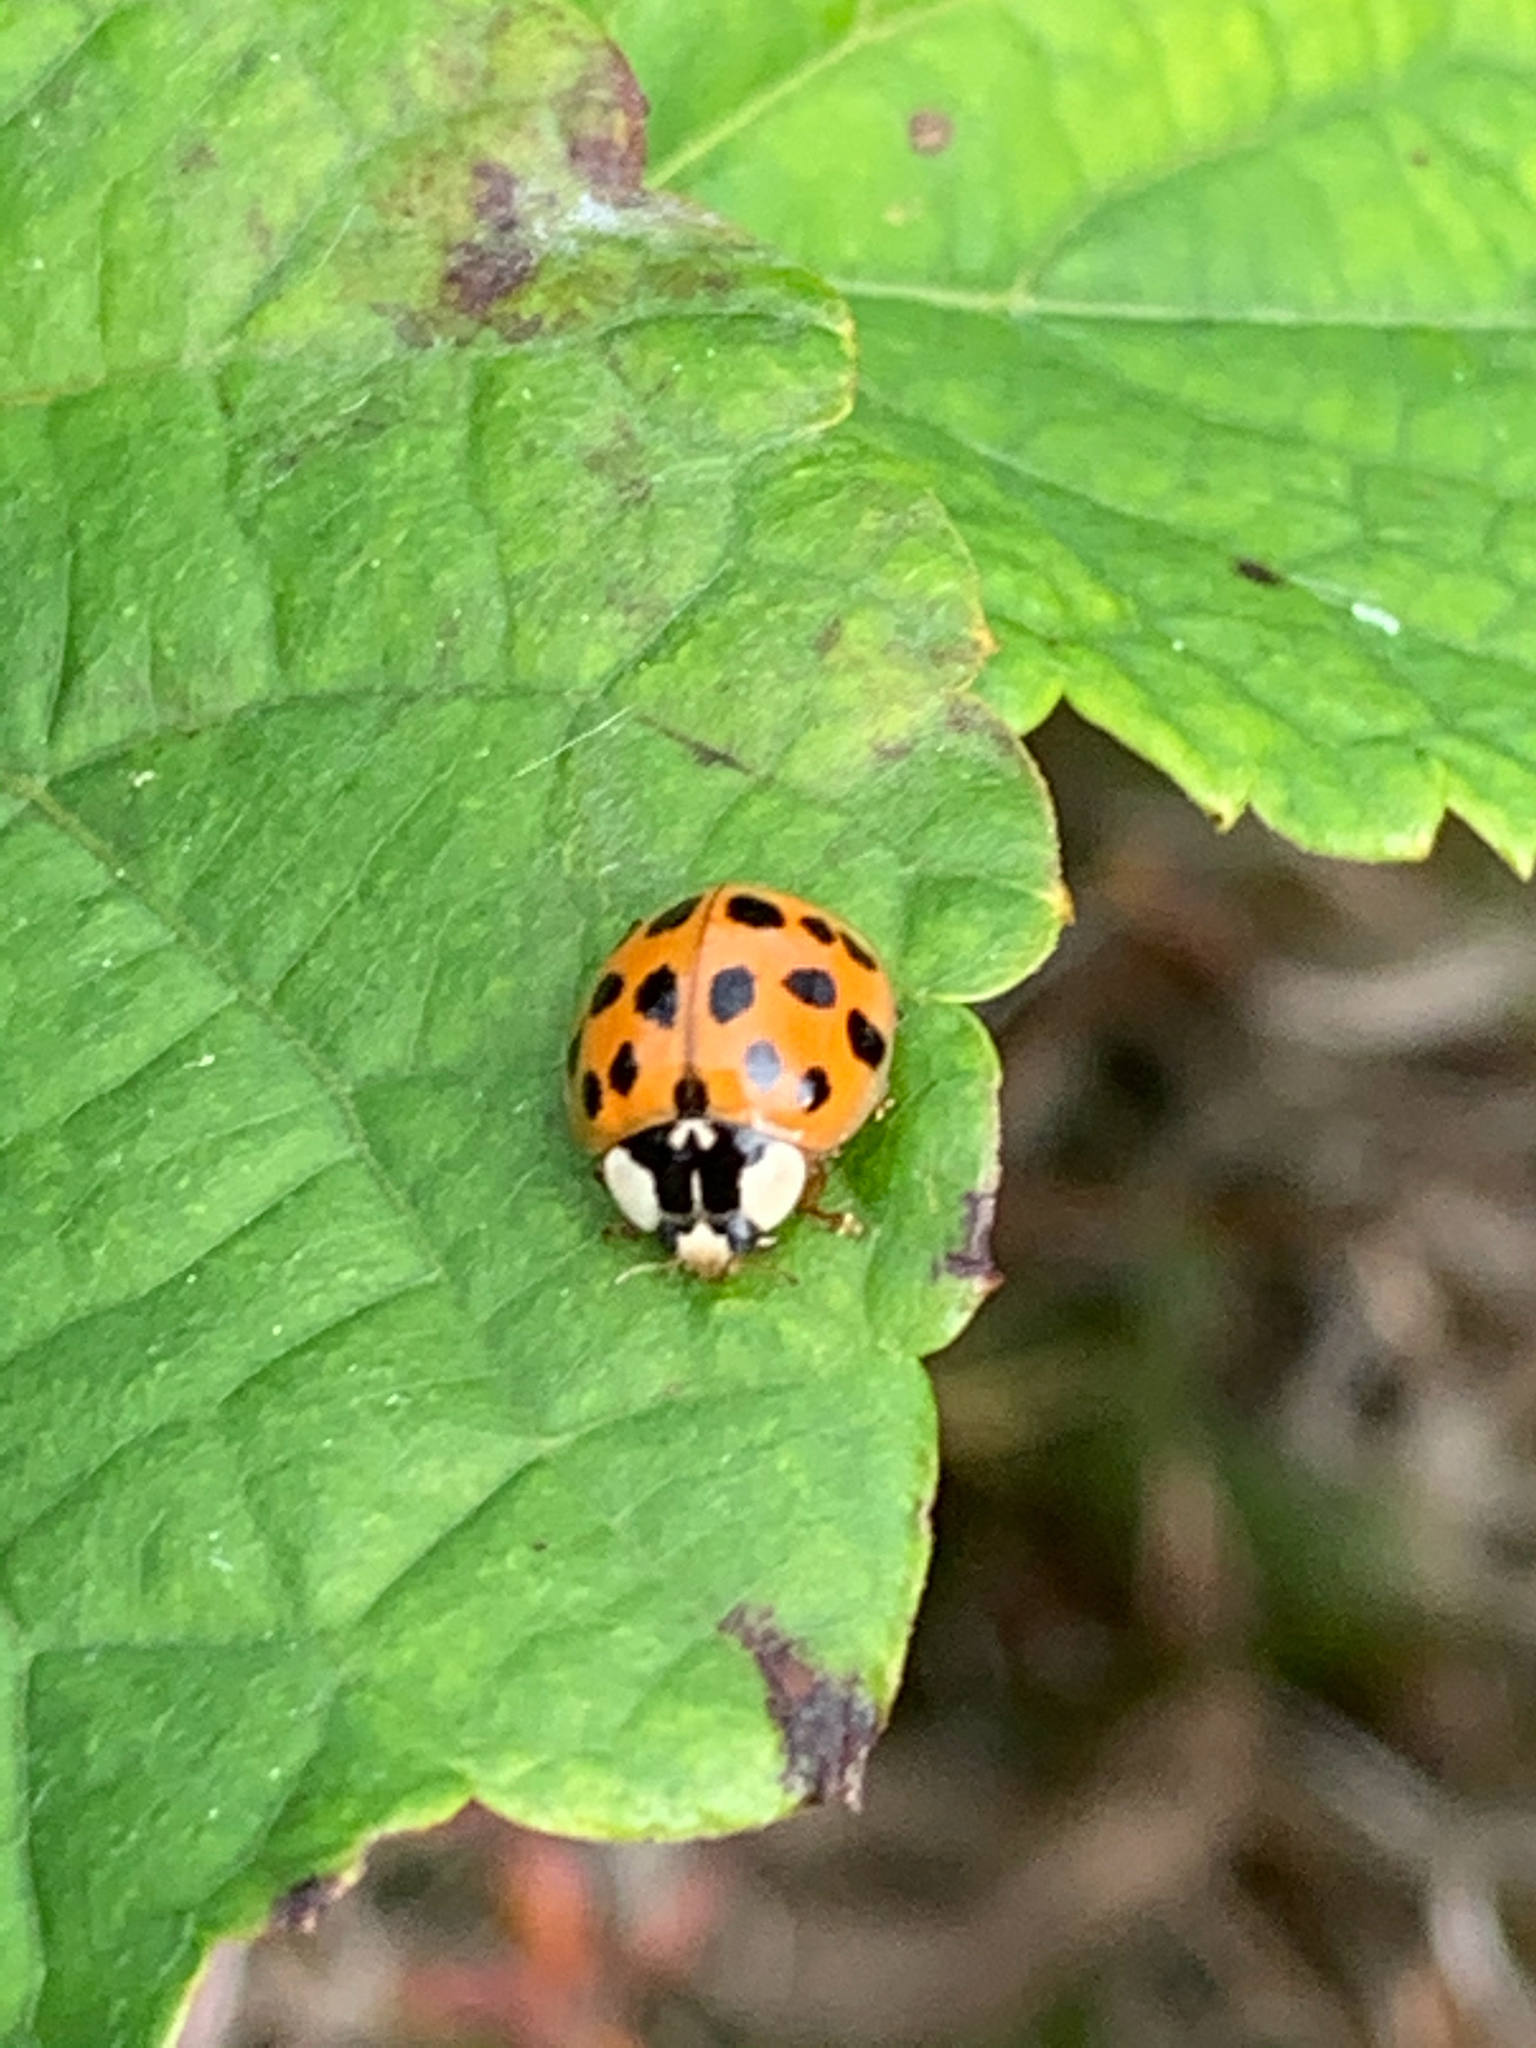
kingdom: Animalia
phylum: Arthropoda
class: Insecta
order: Coleoptera
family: Coccinellidae
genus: Harmonia
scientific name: Harmonia axyridis
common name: Harlequin ladybird
